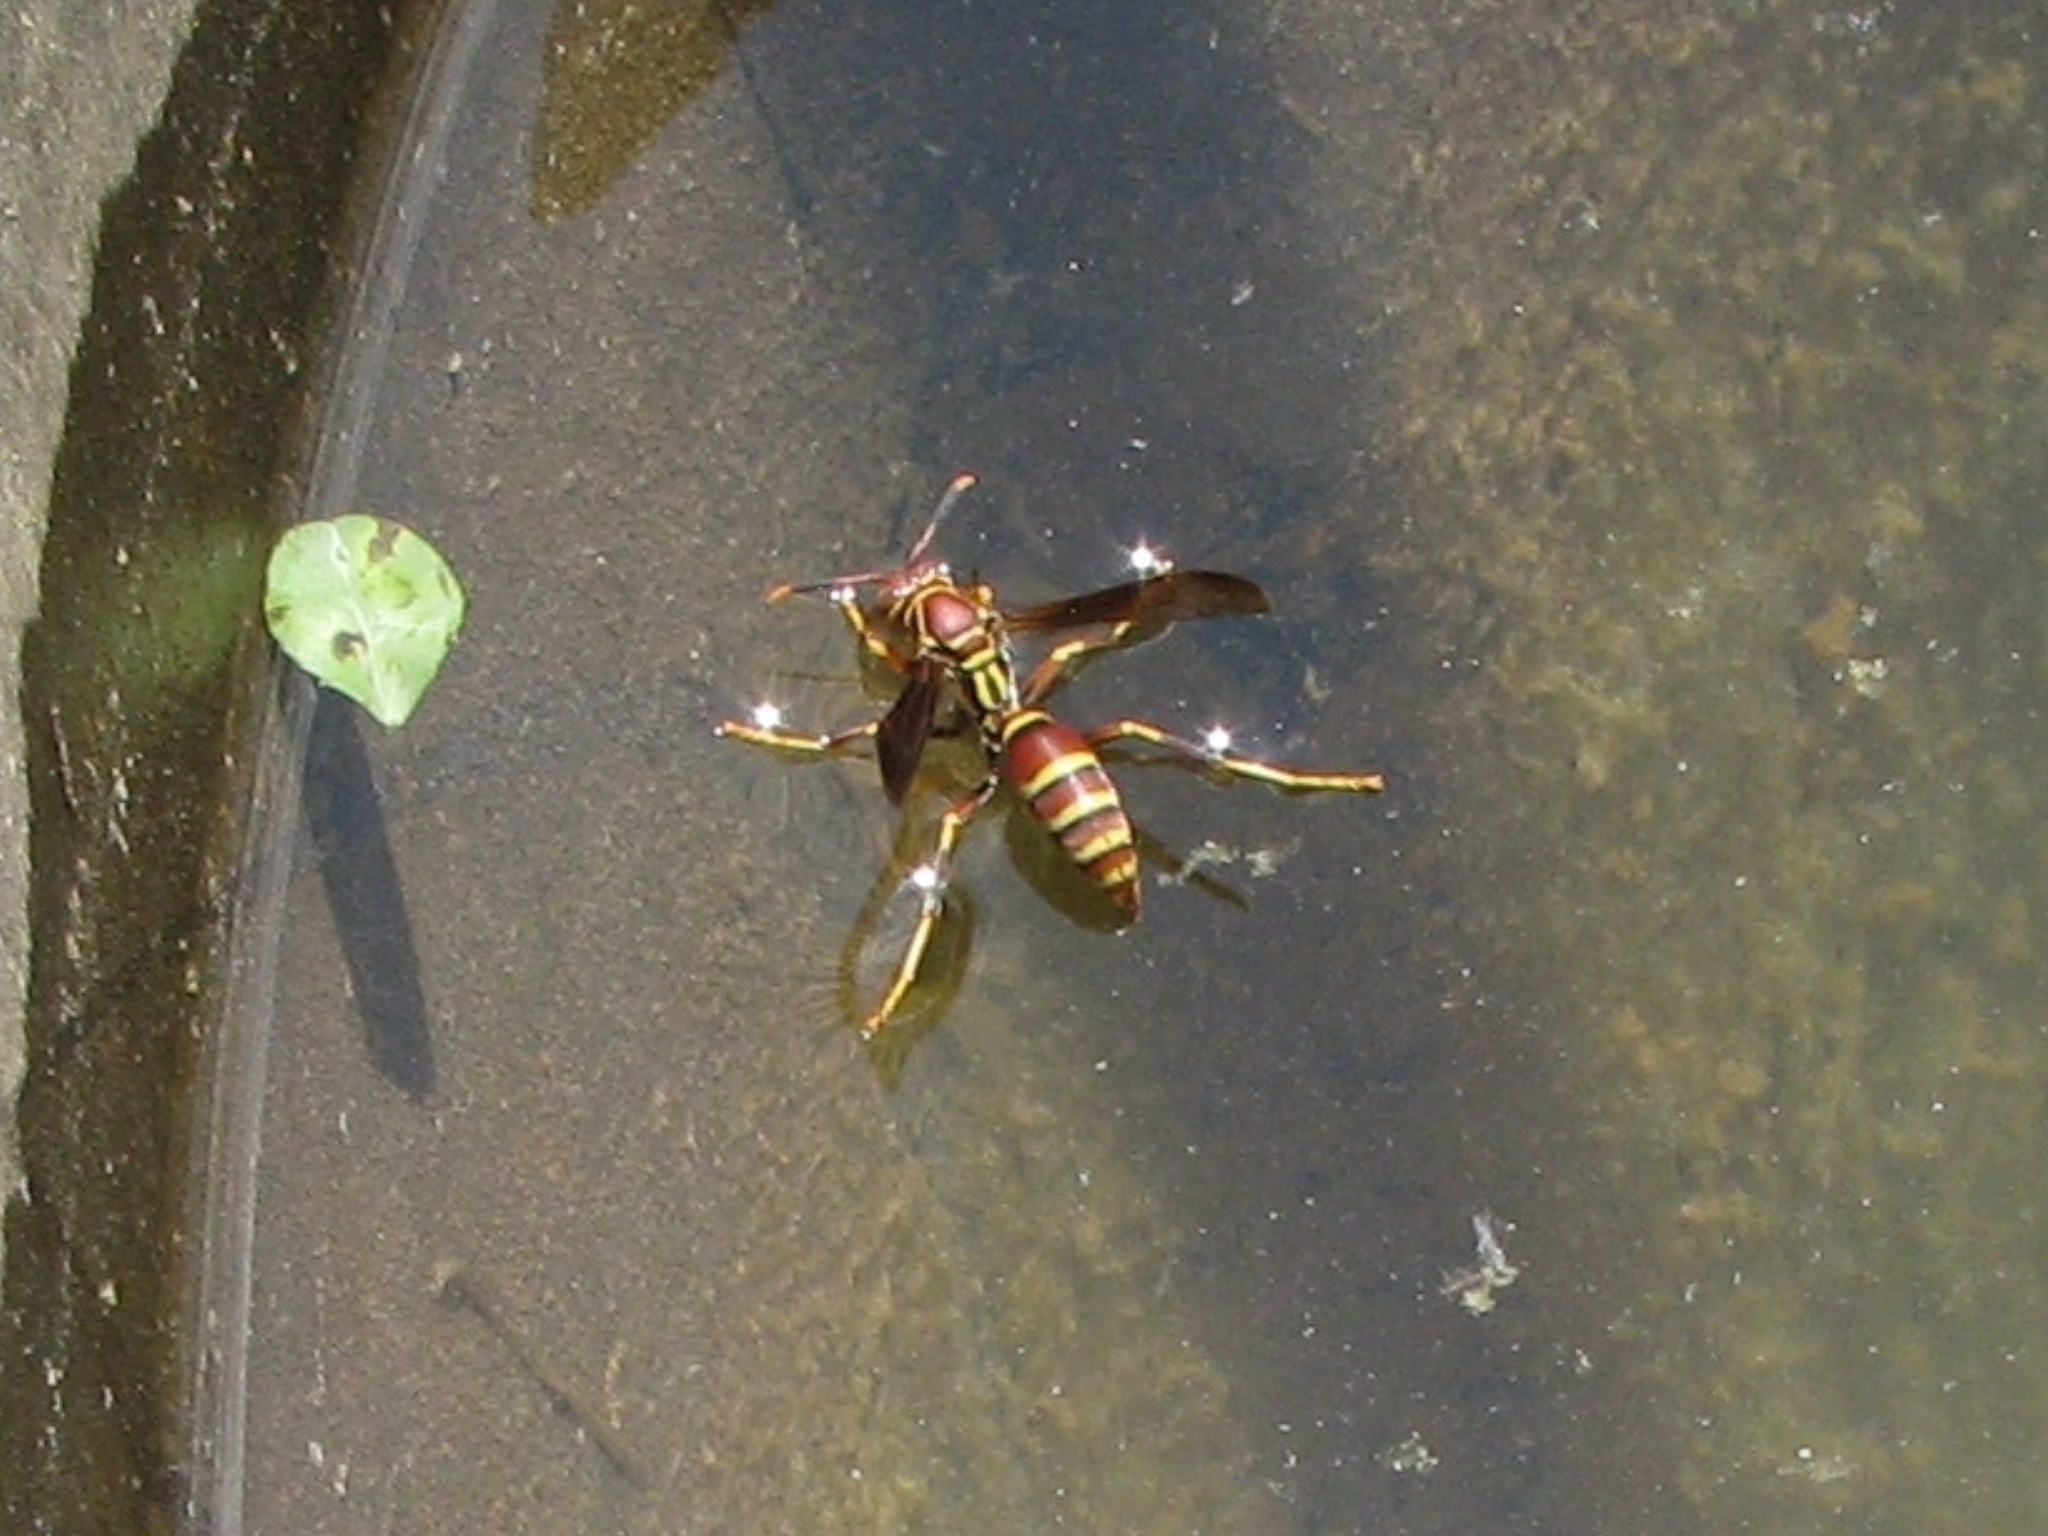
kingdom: Animalia
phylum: Arthropoda
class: Insecta
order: Hymenoptera
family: Eumenidae
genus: Polistes
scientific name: Polistes exclamans
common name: Paper wasp
